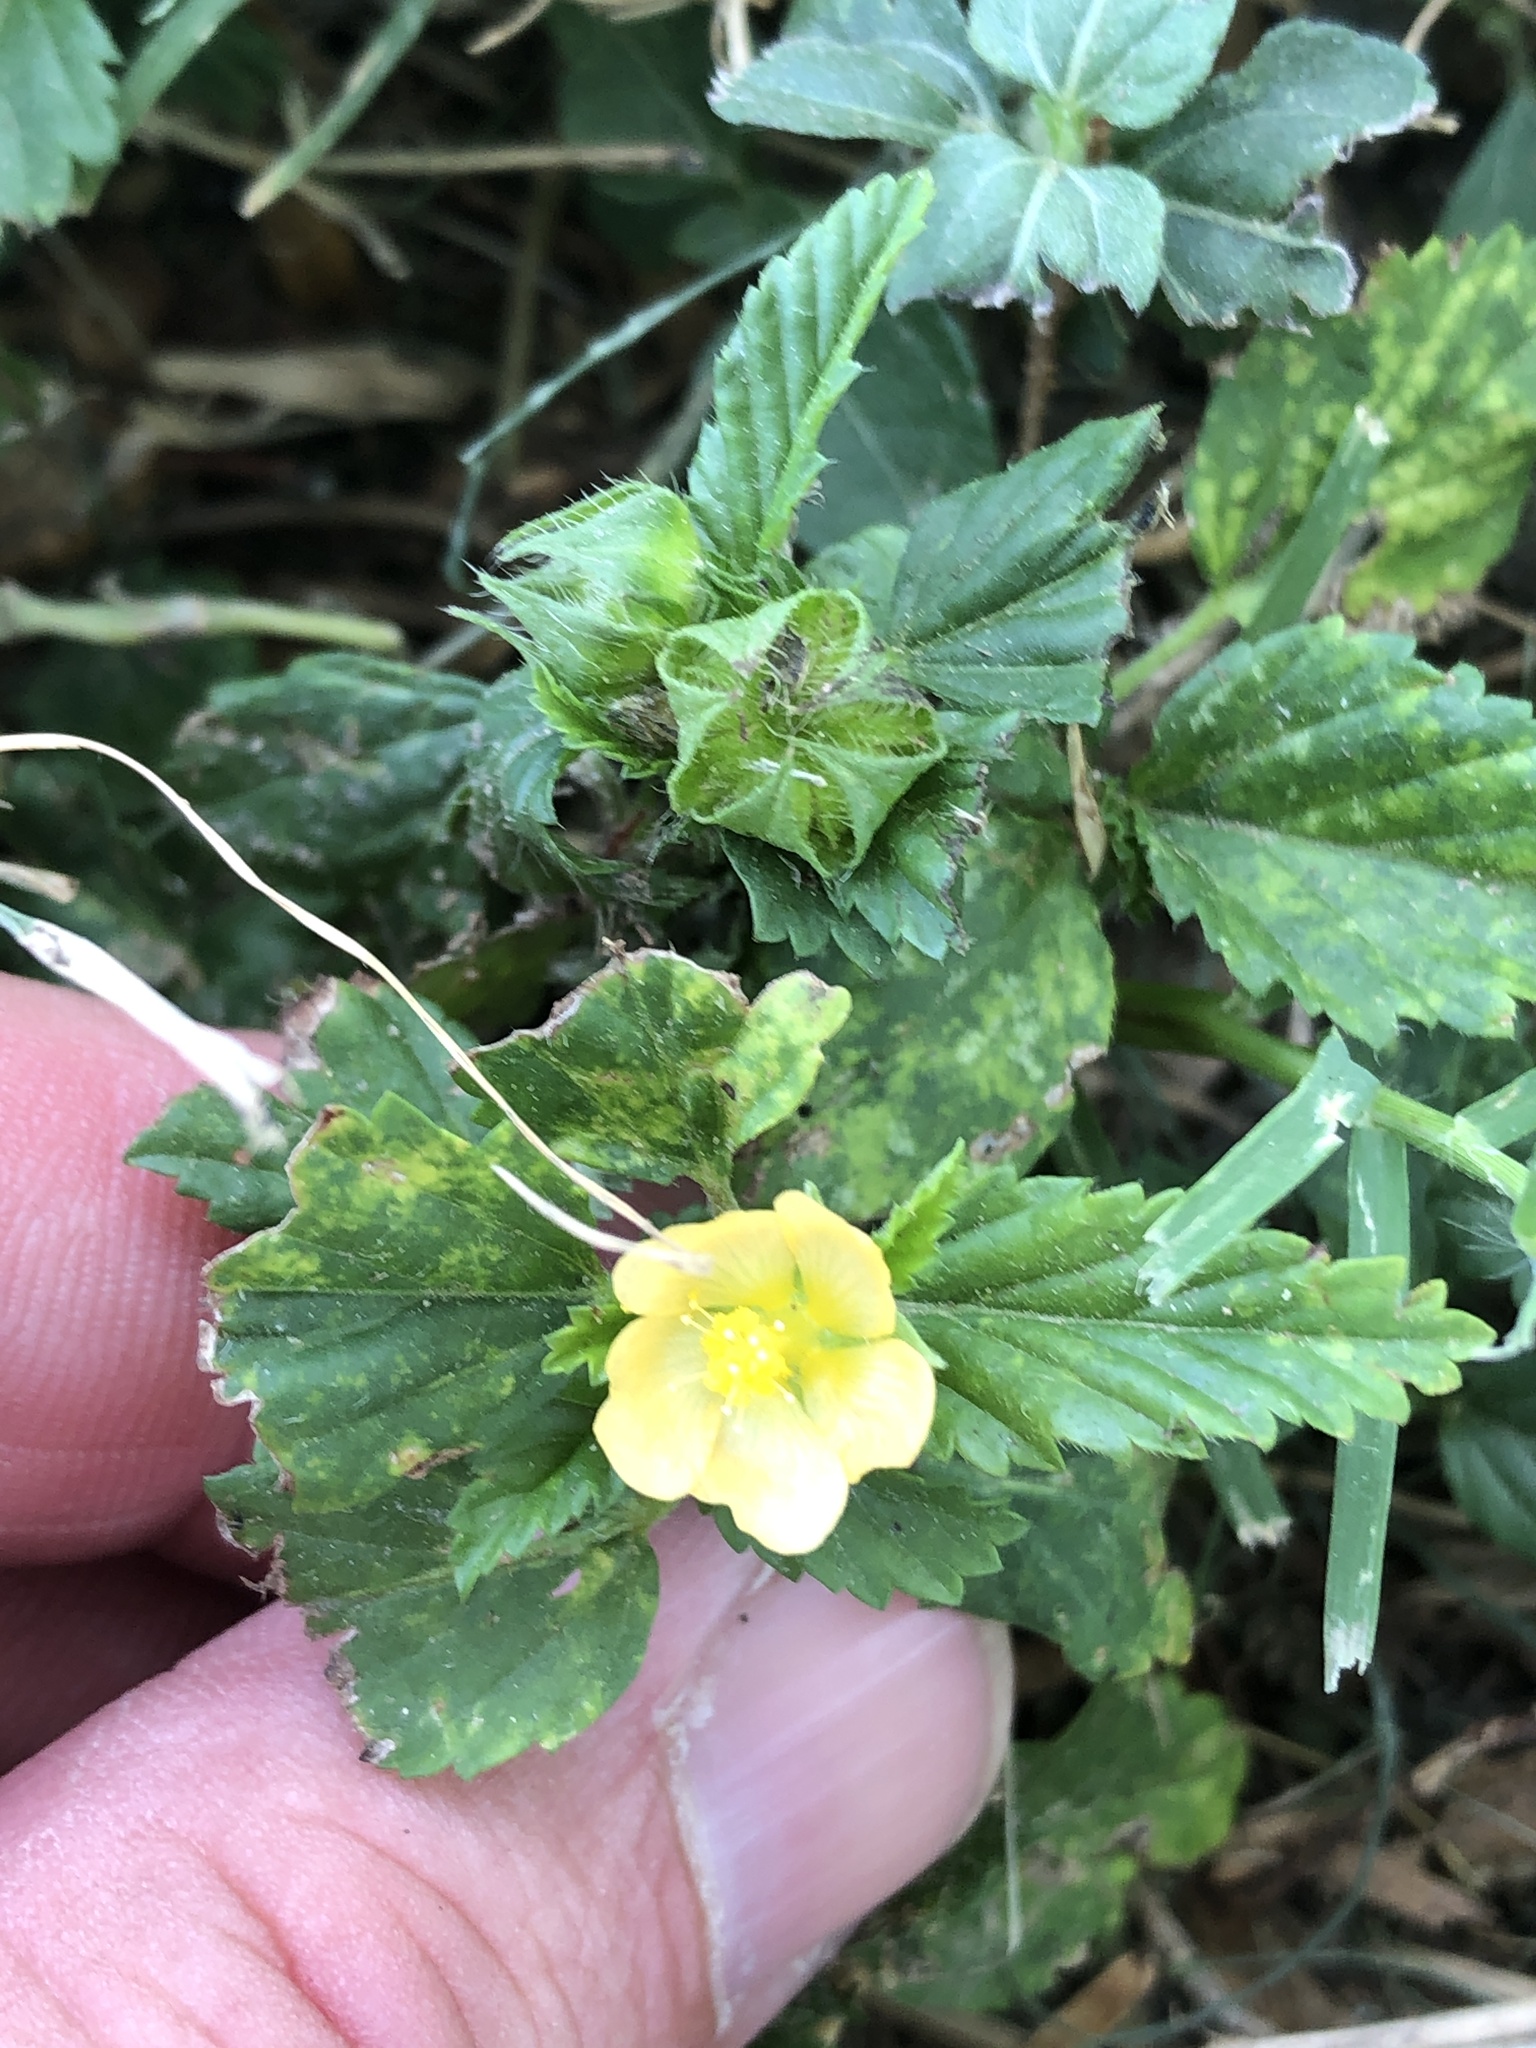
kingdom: Plantae
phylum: Tracheophyta
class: Magnoliopsida
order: Malvales
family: Malvaceae
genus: Malvastrum
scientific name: Malvastrum coromandelianum
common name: Threelobe false mallow
